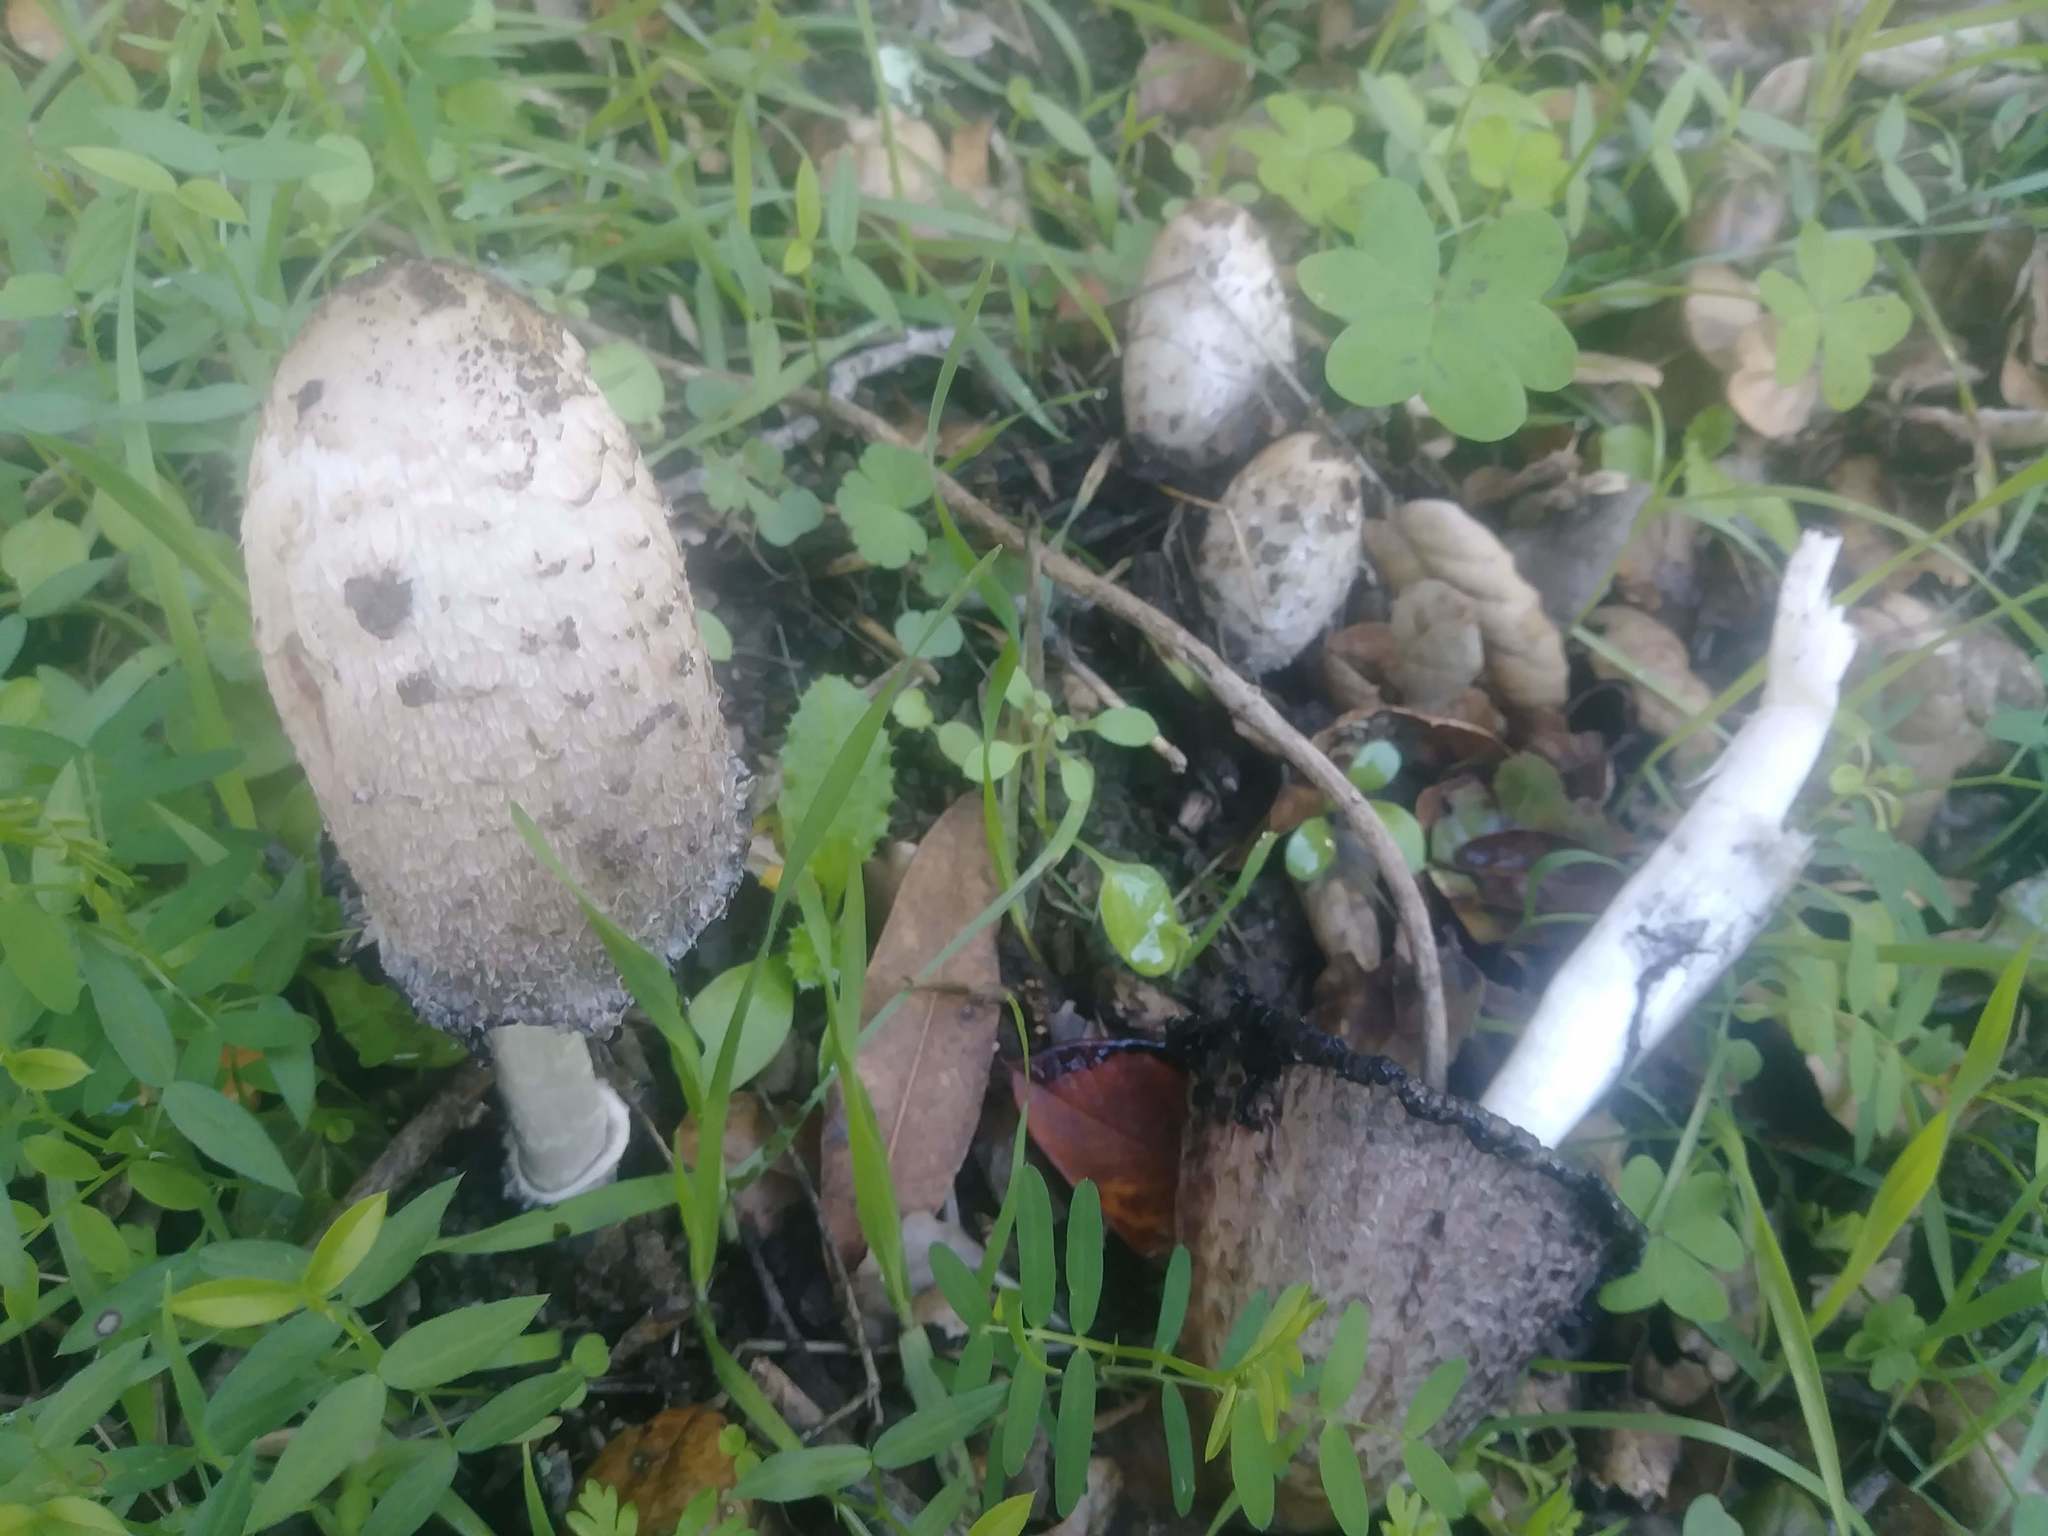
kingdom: Fungi
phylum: Basidiomycota
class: Agaricomycetes
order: Agaricales
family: Agaricaceae
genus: Coprinus
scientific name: Coprinus comatus
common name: Lawyer's wig
